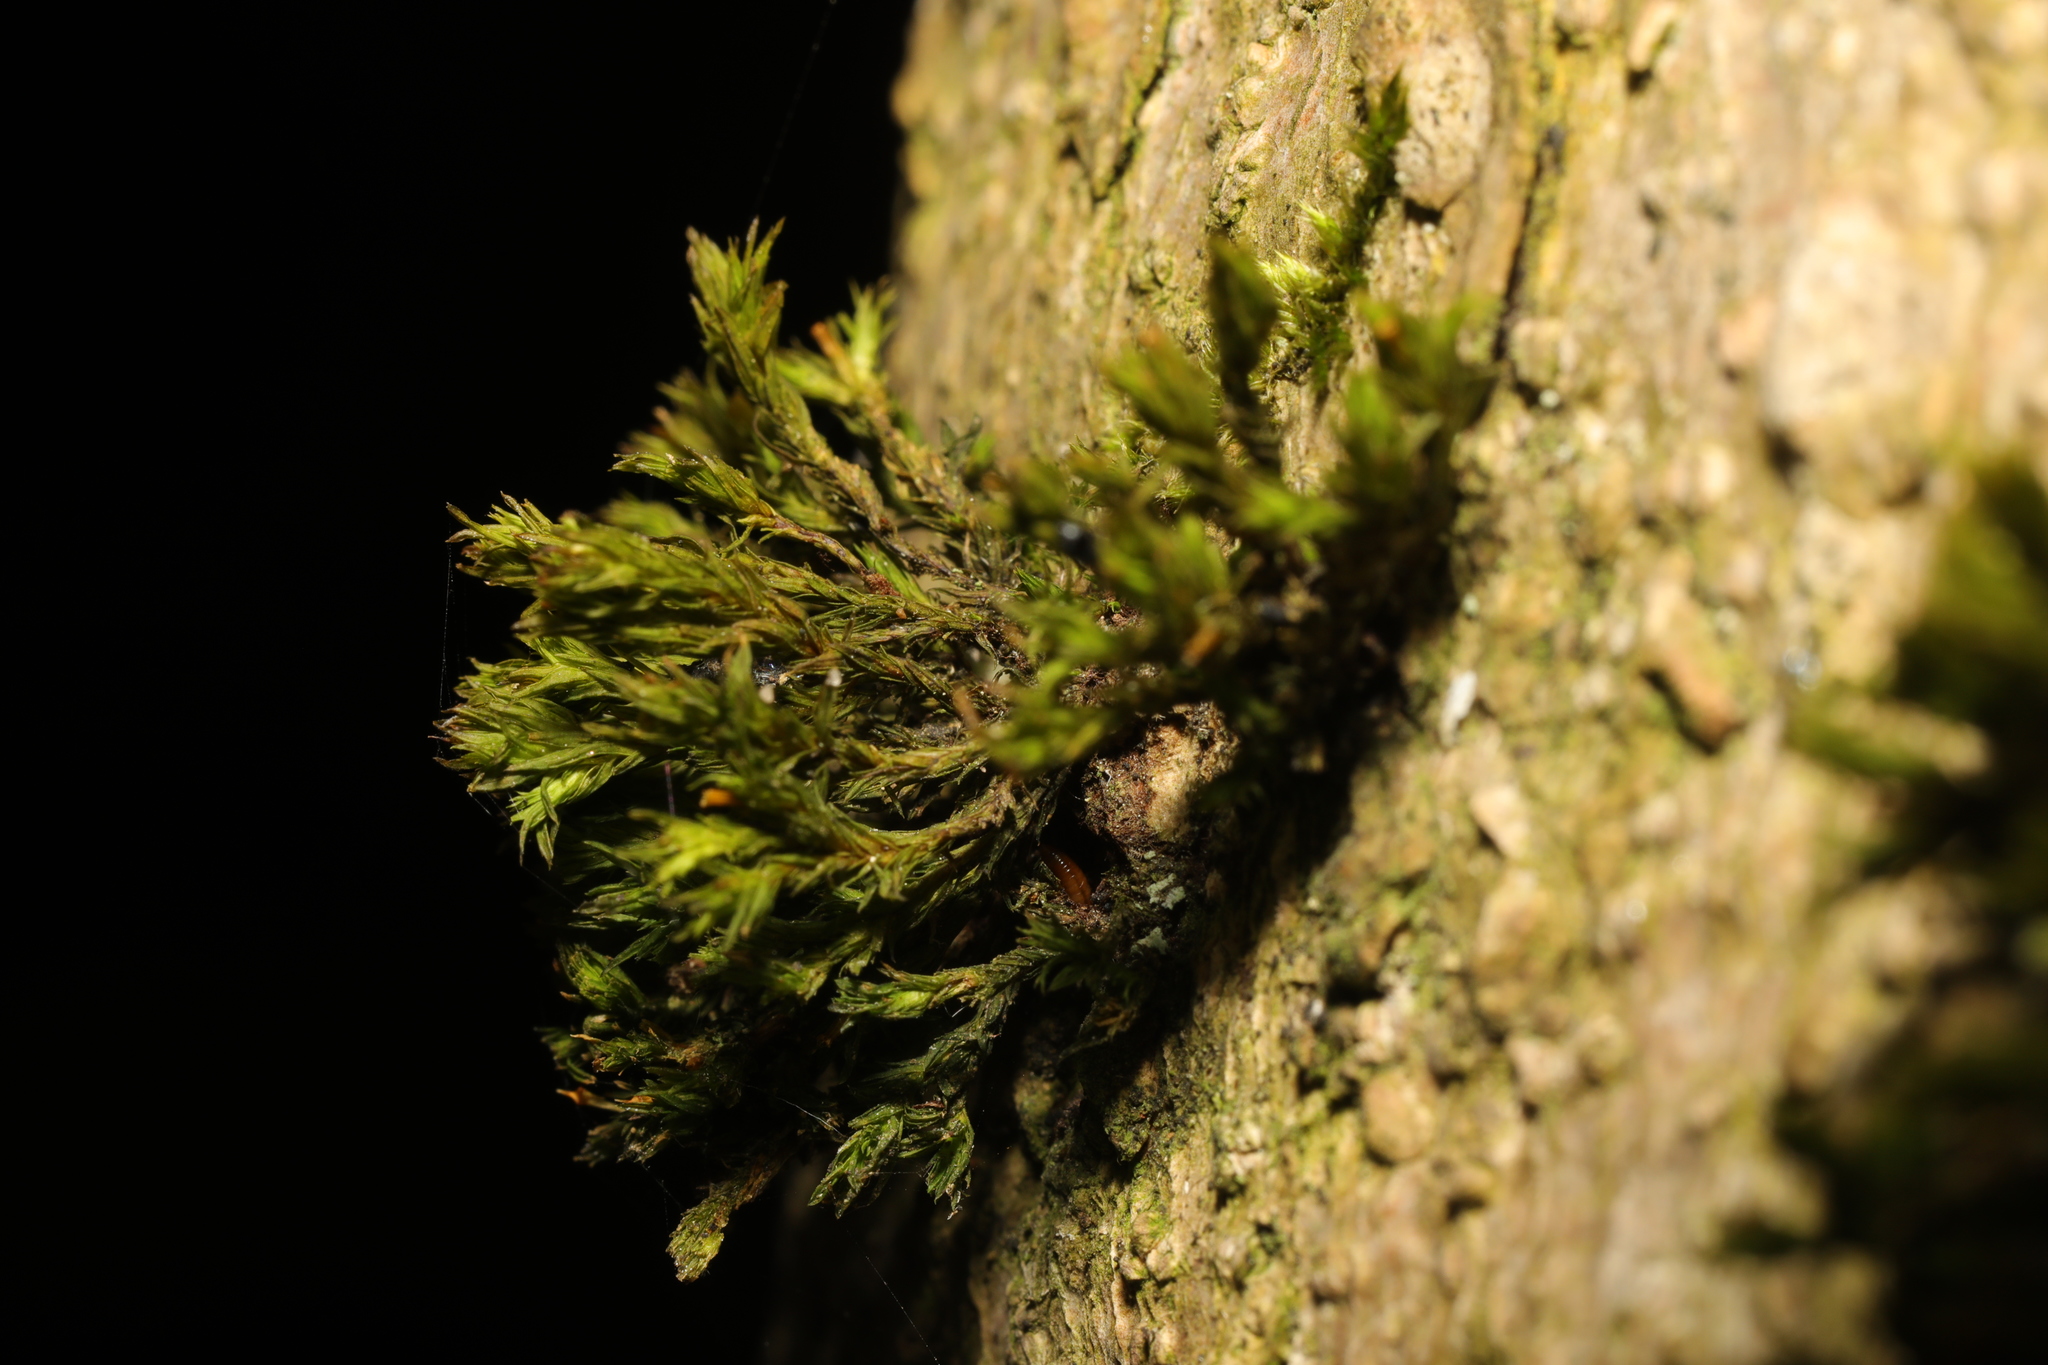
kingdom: Plantae
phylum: Bryophyta
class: Bryopsida
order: Orthotrichales
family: Orthotrichaceae
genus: Lewinskya
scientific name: Lewinskya affinis
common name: Wood bristle-moss
